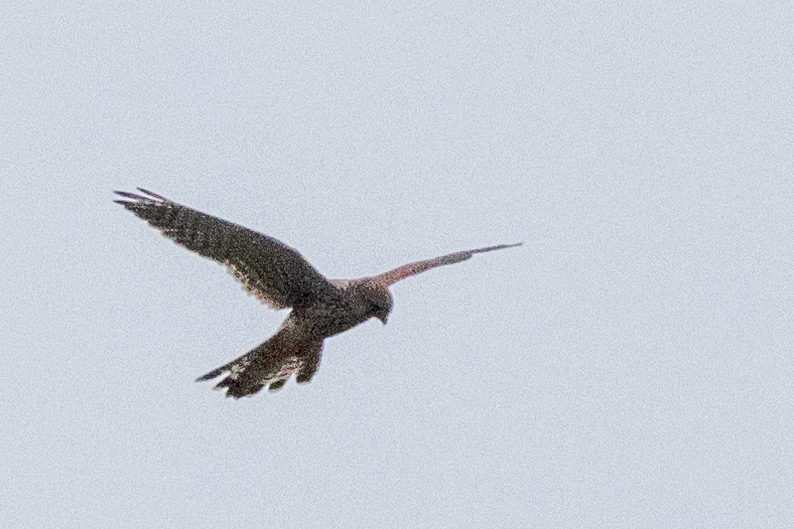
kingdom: Animalia
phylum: Chordata
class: Aves
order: Falconiformes
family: Falconidae
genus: Falco
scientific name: Falco tinnunculus
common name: Common kestrel
